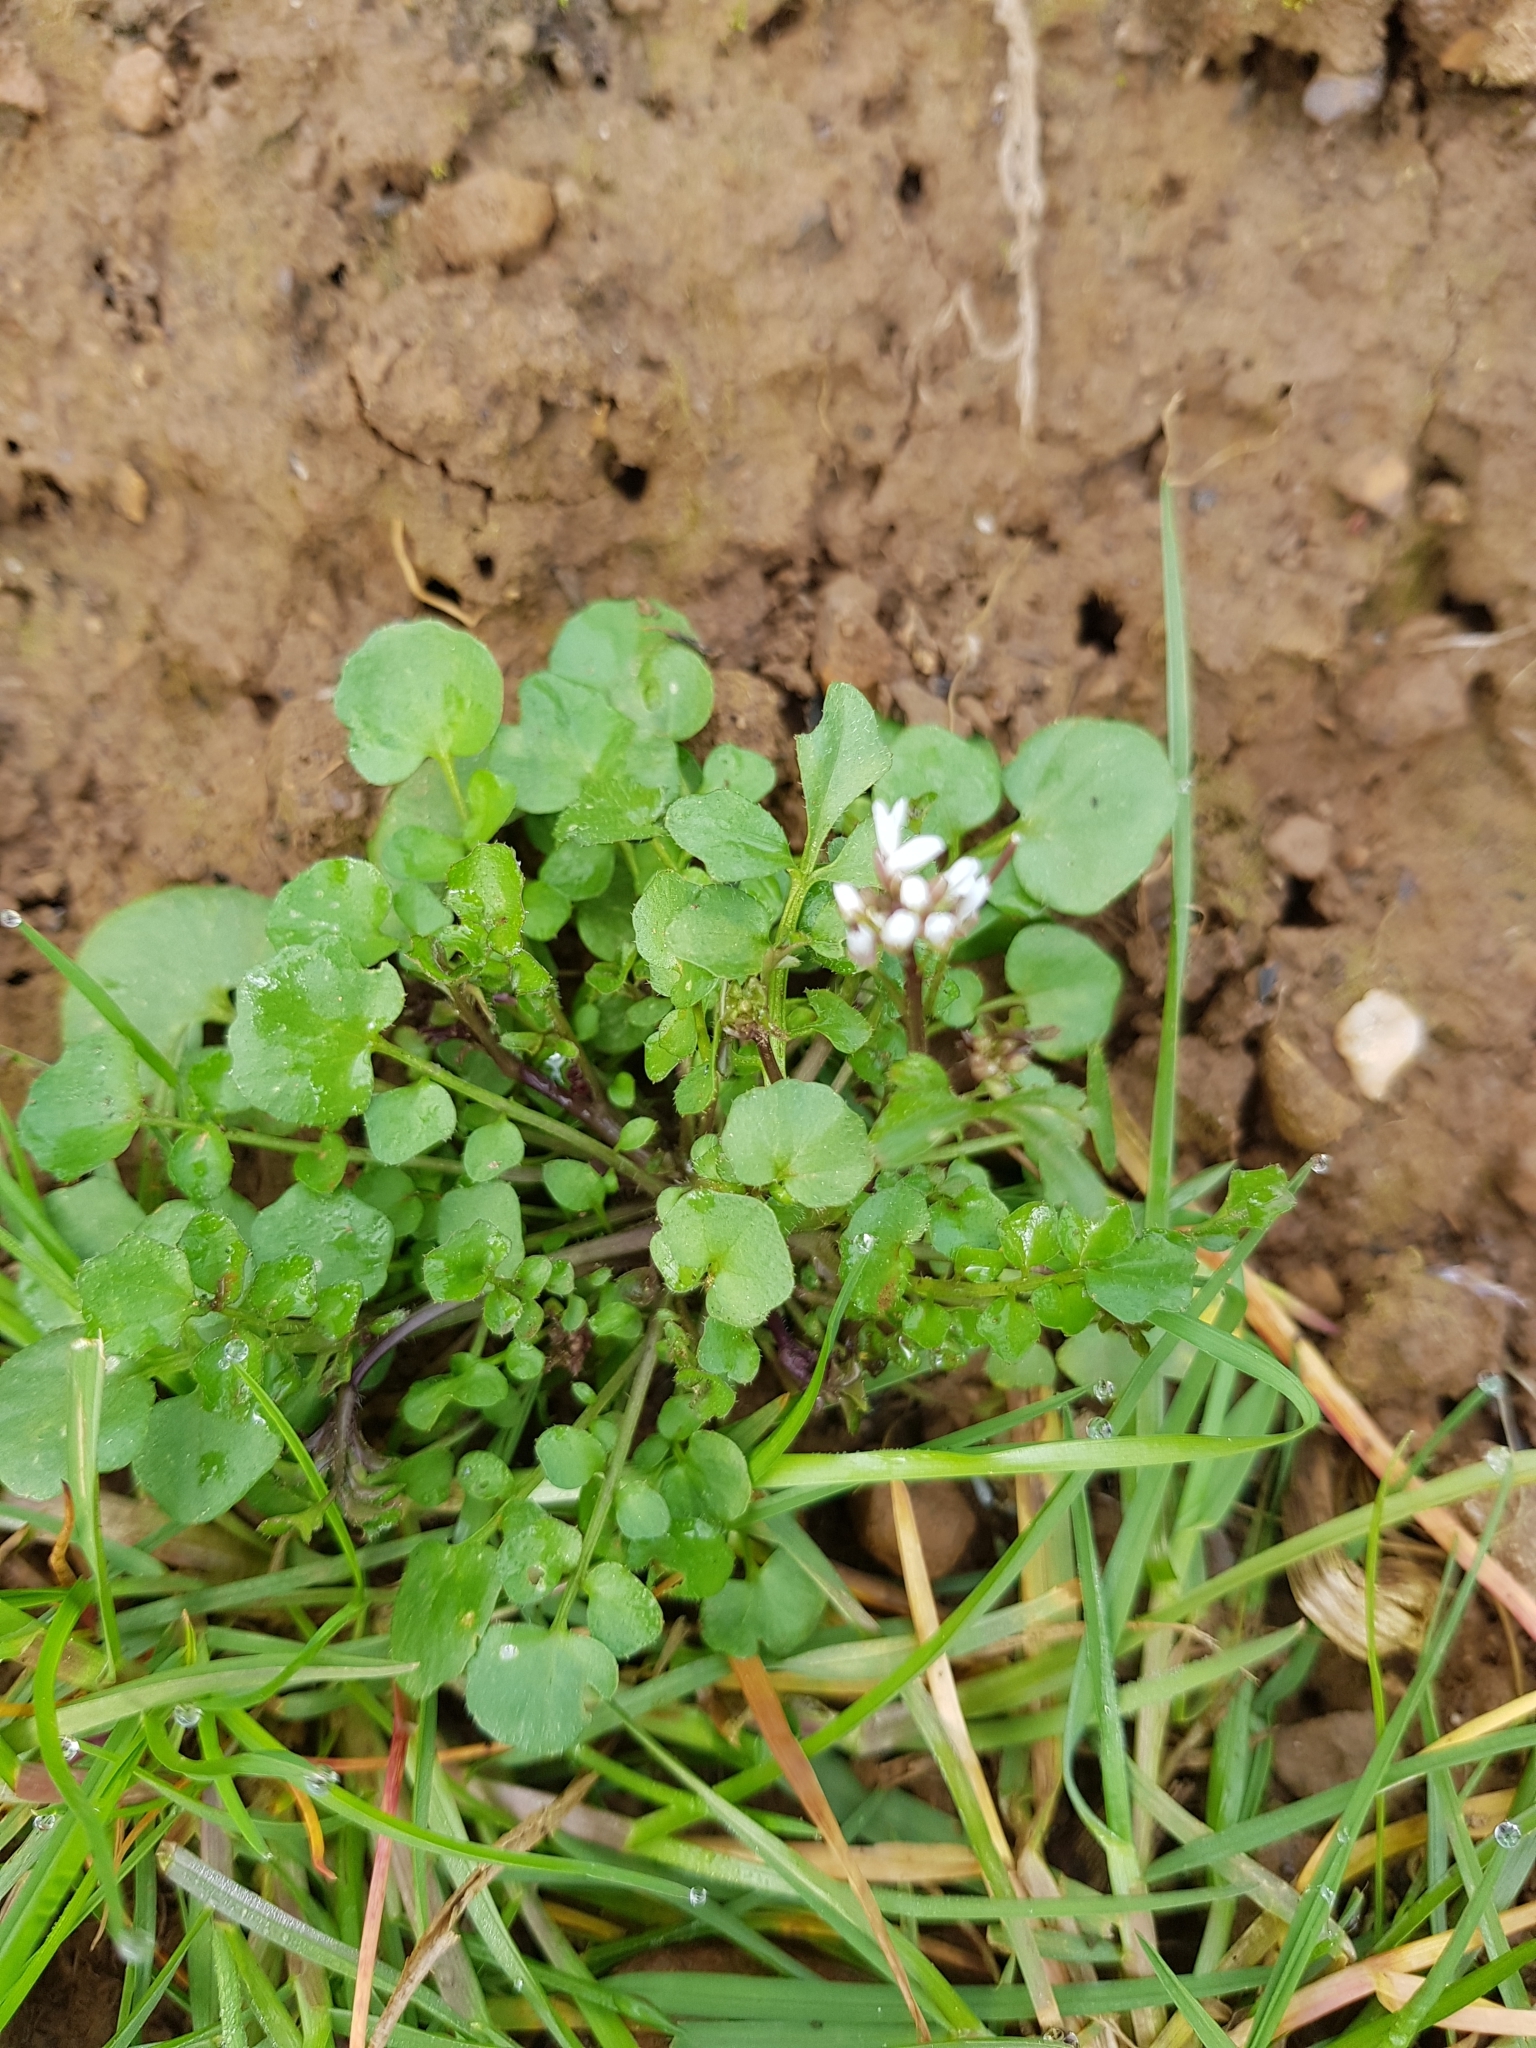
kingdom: Plantae
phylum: Tracheophyta
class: Magnoliopsida
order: Brassicales
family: Brassicaceae
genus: Cardamine
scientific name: Cardamine hirsuta
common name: Hairy bittercress
